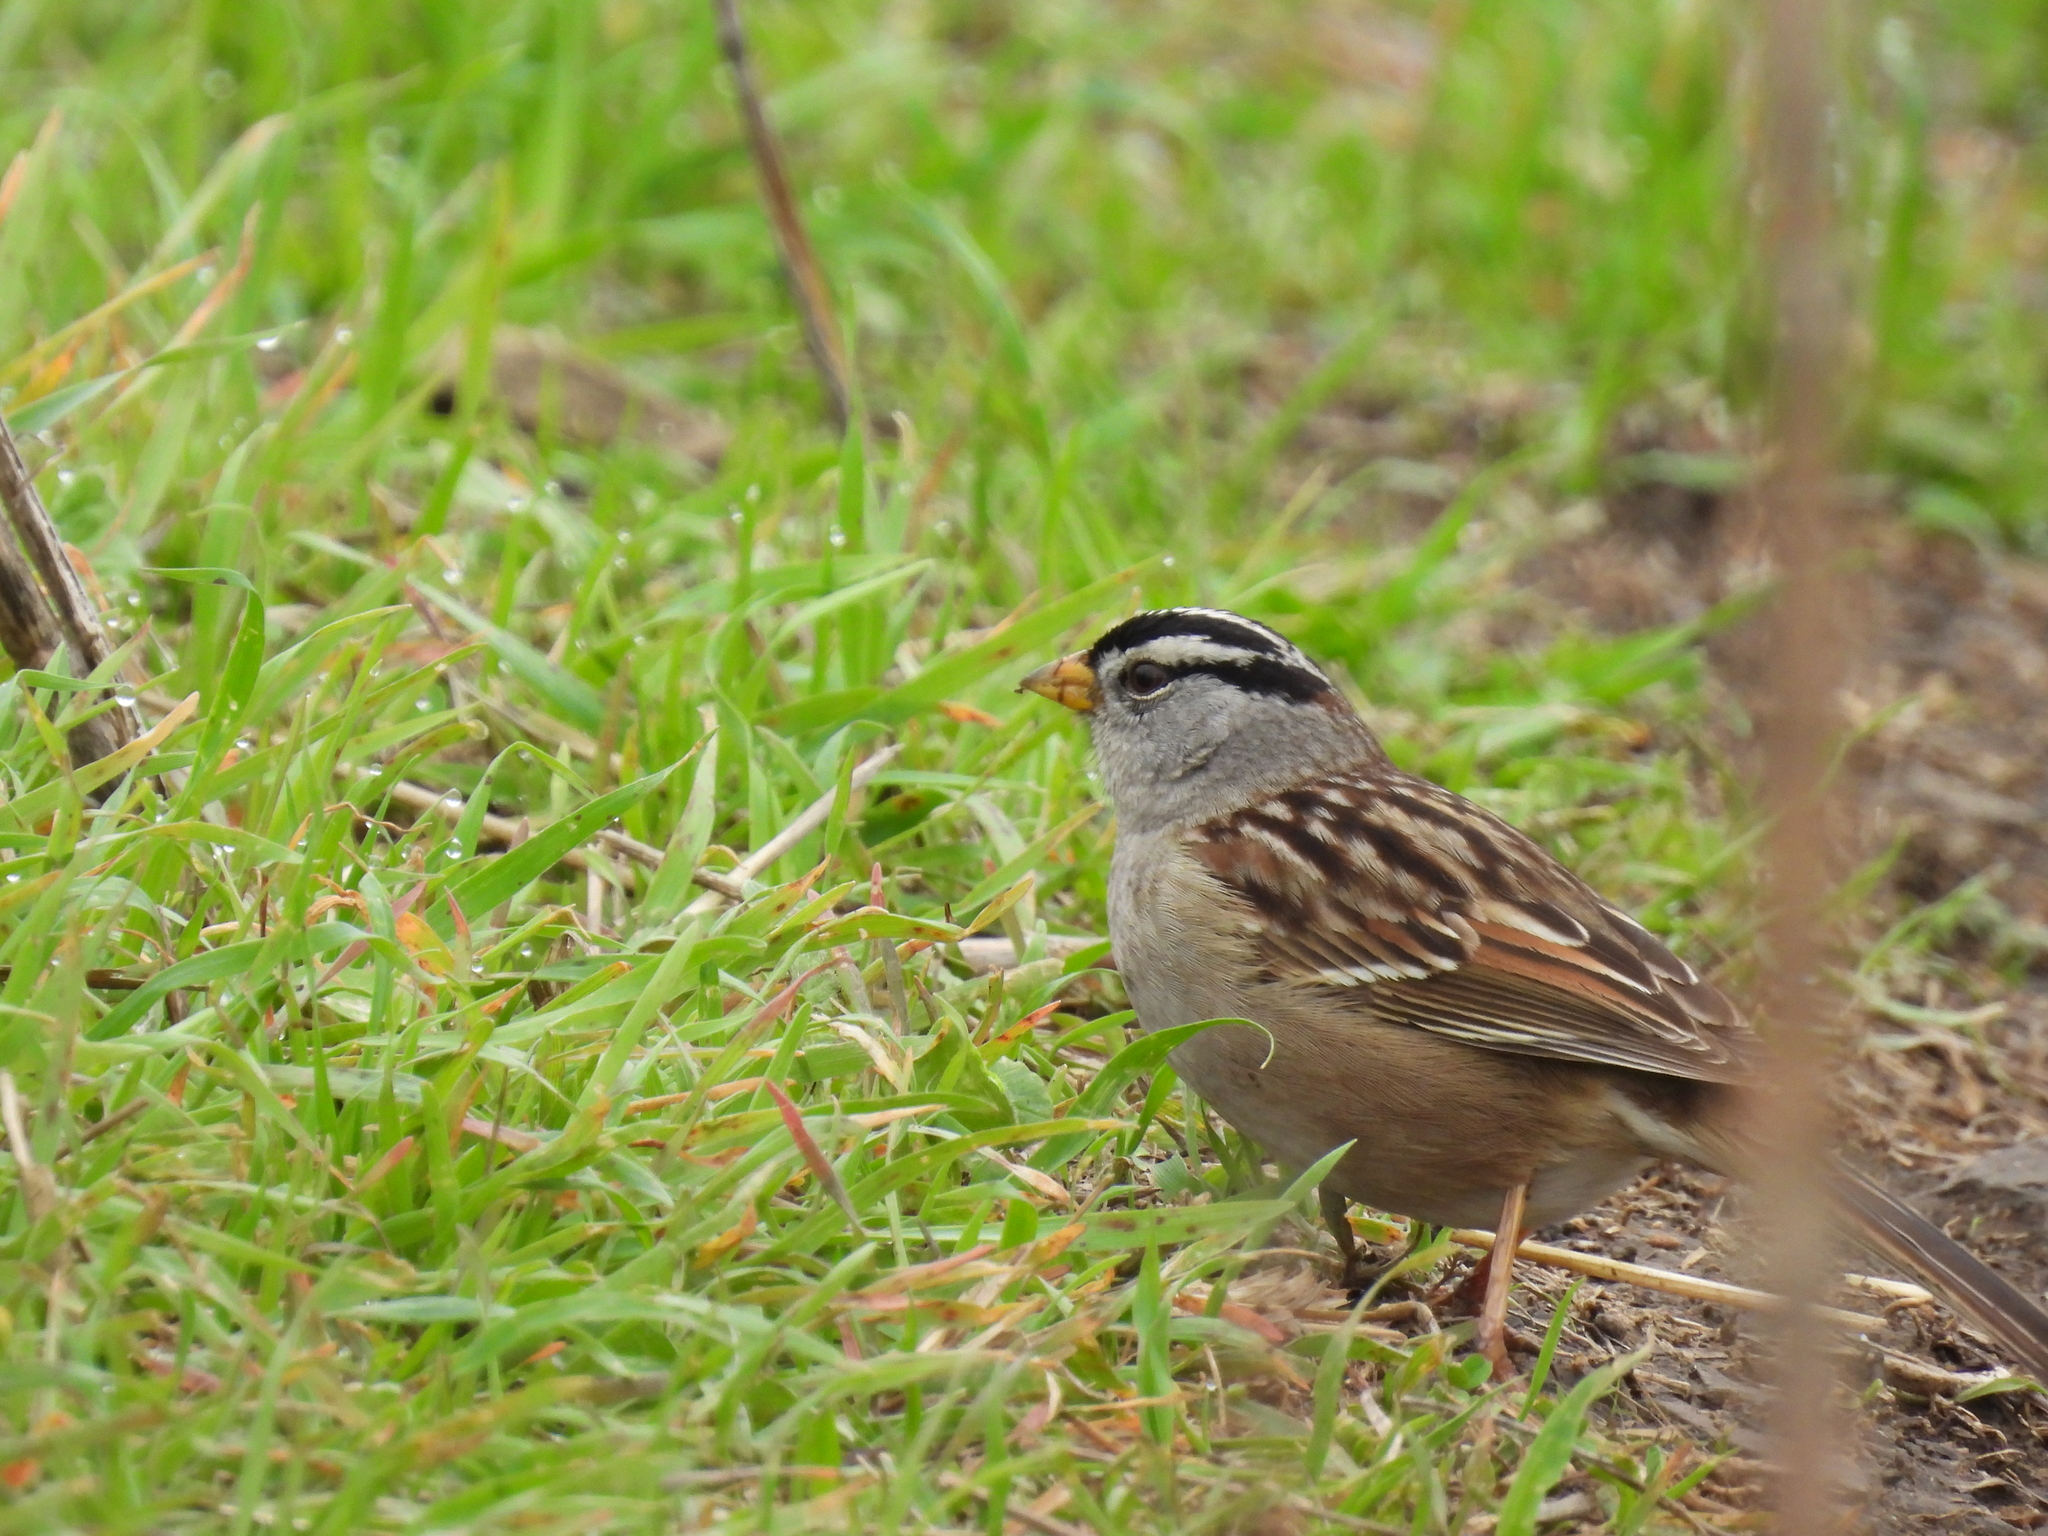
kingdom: Animalia
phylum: Chordata
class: Aves
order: Passeriformes
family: Passerellidae
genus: Zonotrichia
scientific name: Zonotrichia leucophrys
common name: White-crowned sparrow
